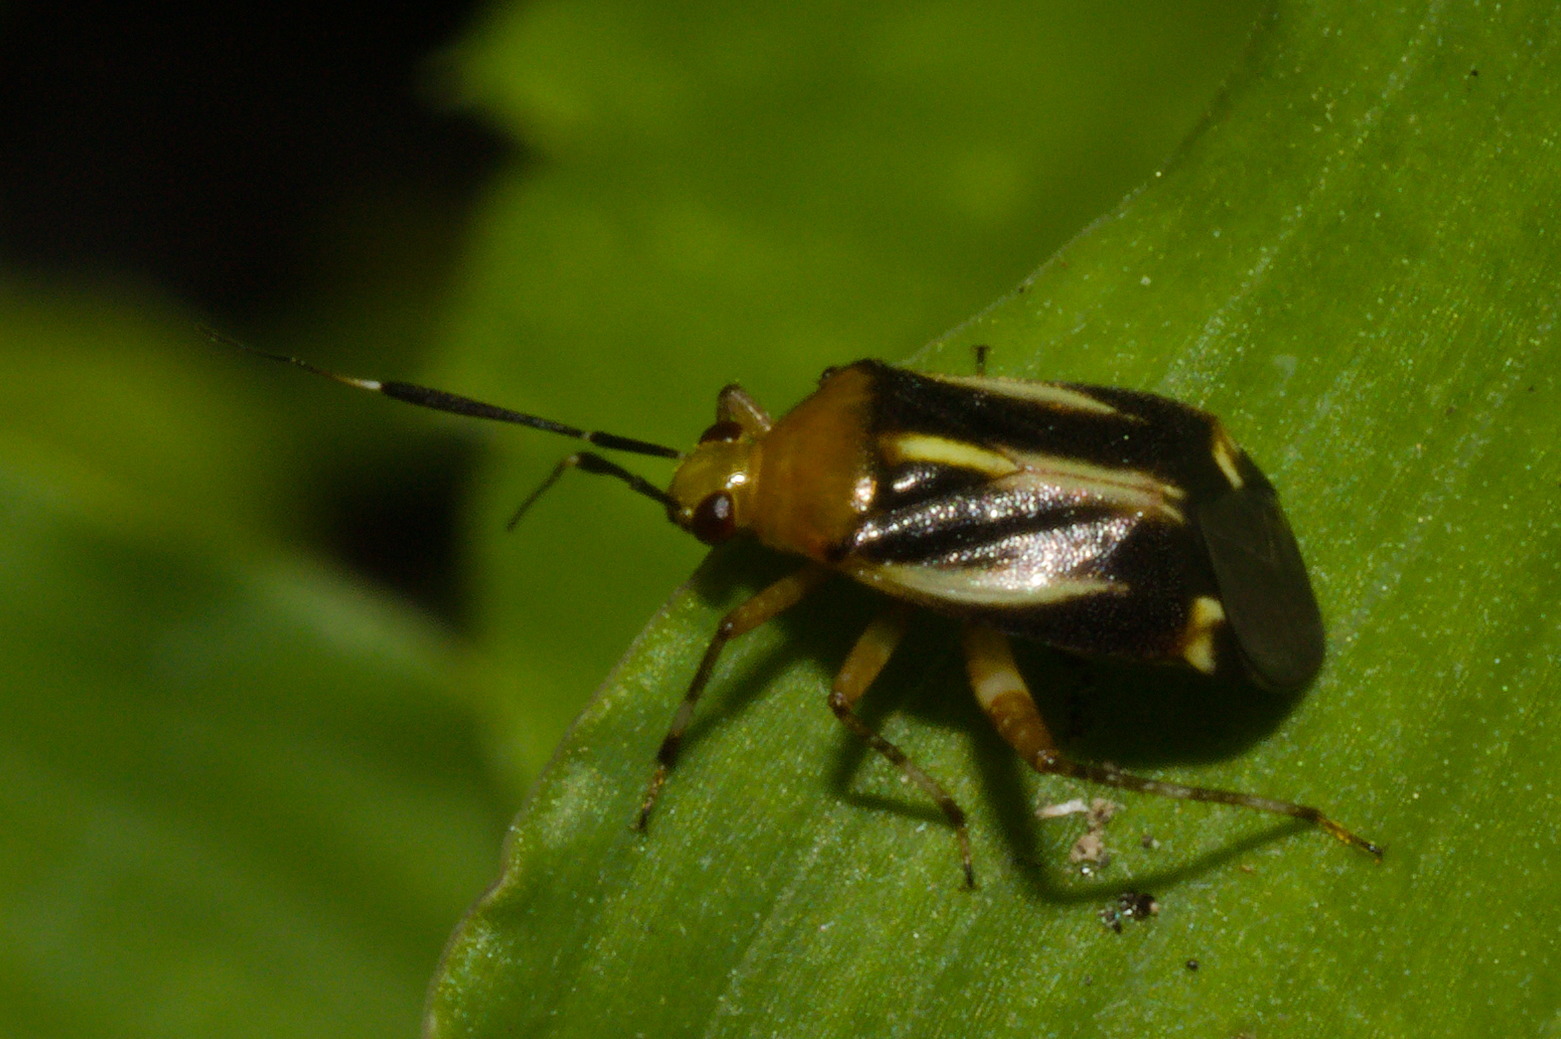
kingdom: Animalia
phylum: Arthropoda
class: Insecta
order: Hemiptera
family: Miridae
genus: Horciasinus
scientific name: Horciasinus signoreti
